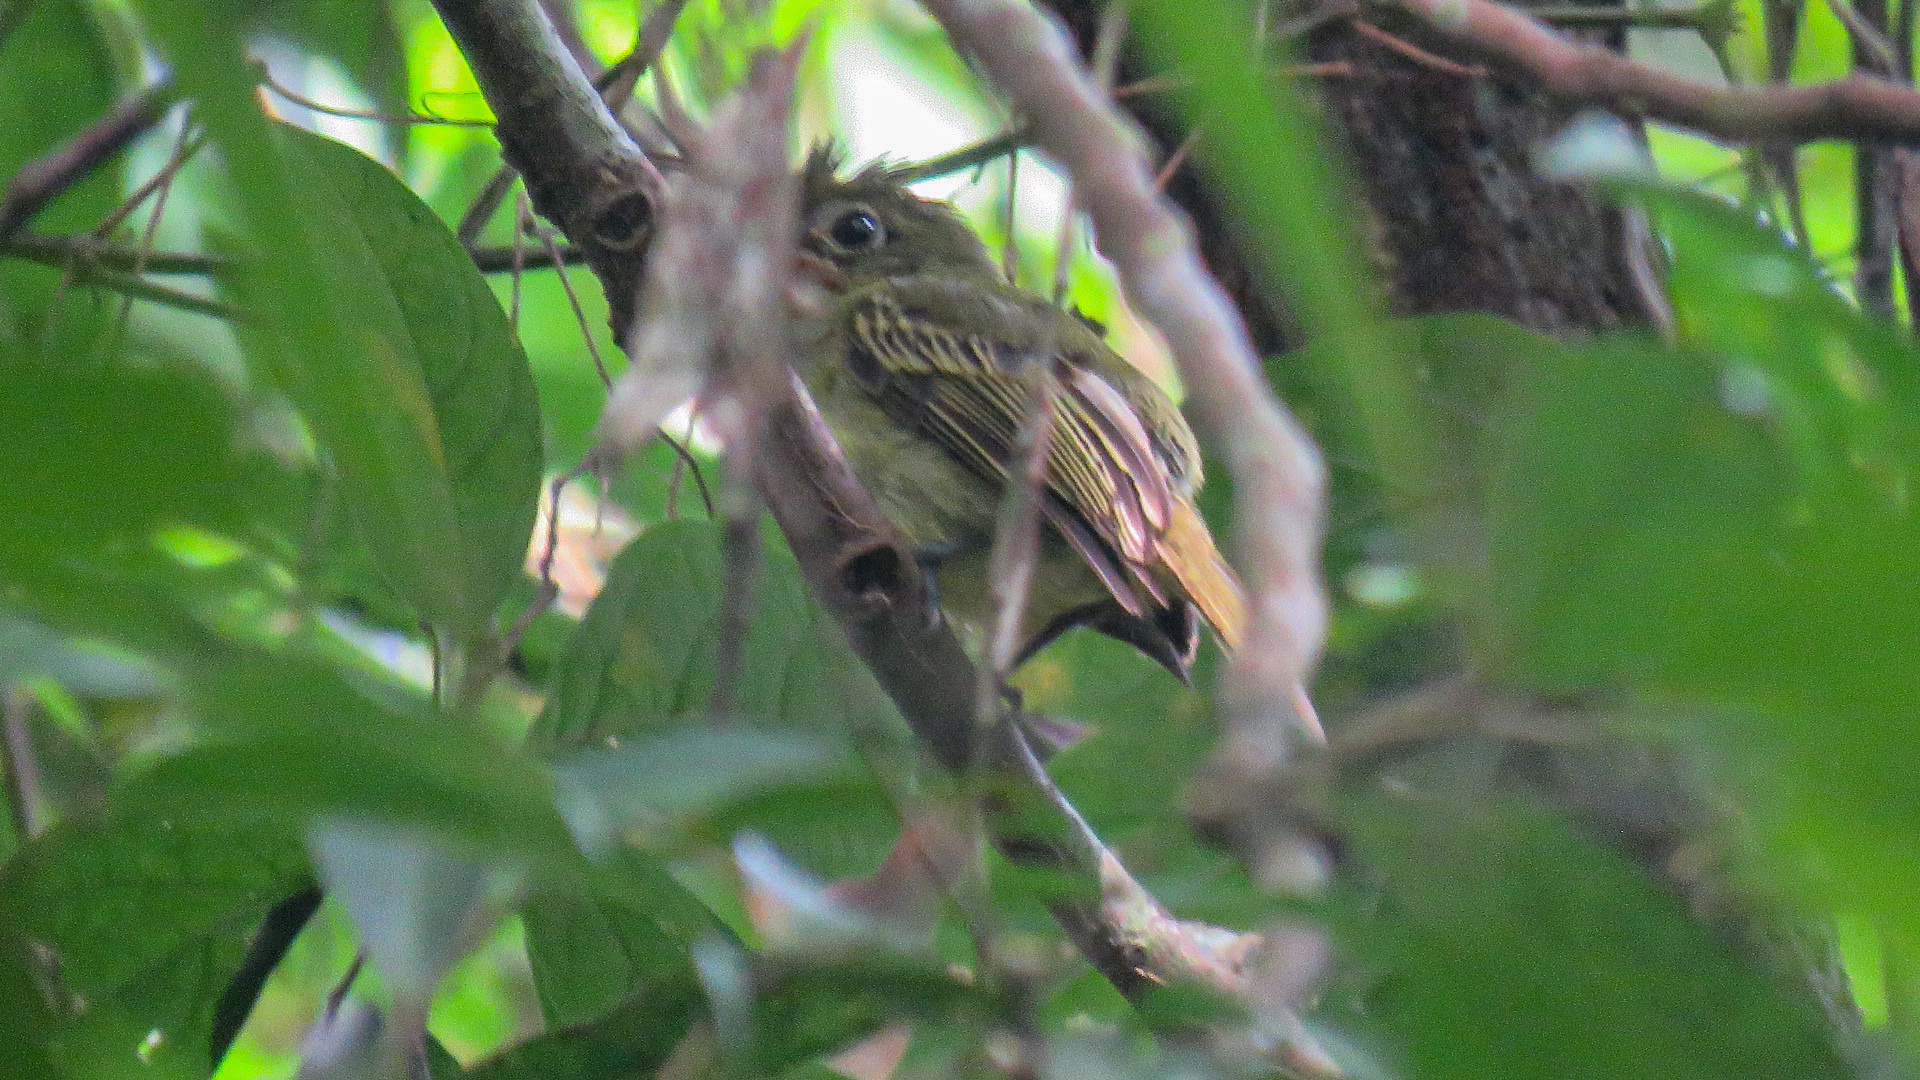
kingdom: Animalia
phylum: Chordata
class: Aves
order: Passeriformes
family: Tyrannidae
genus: Rhynchocyclus
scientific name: Rhynchocyclus olivaceus
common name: Olivaceous flatbill
